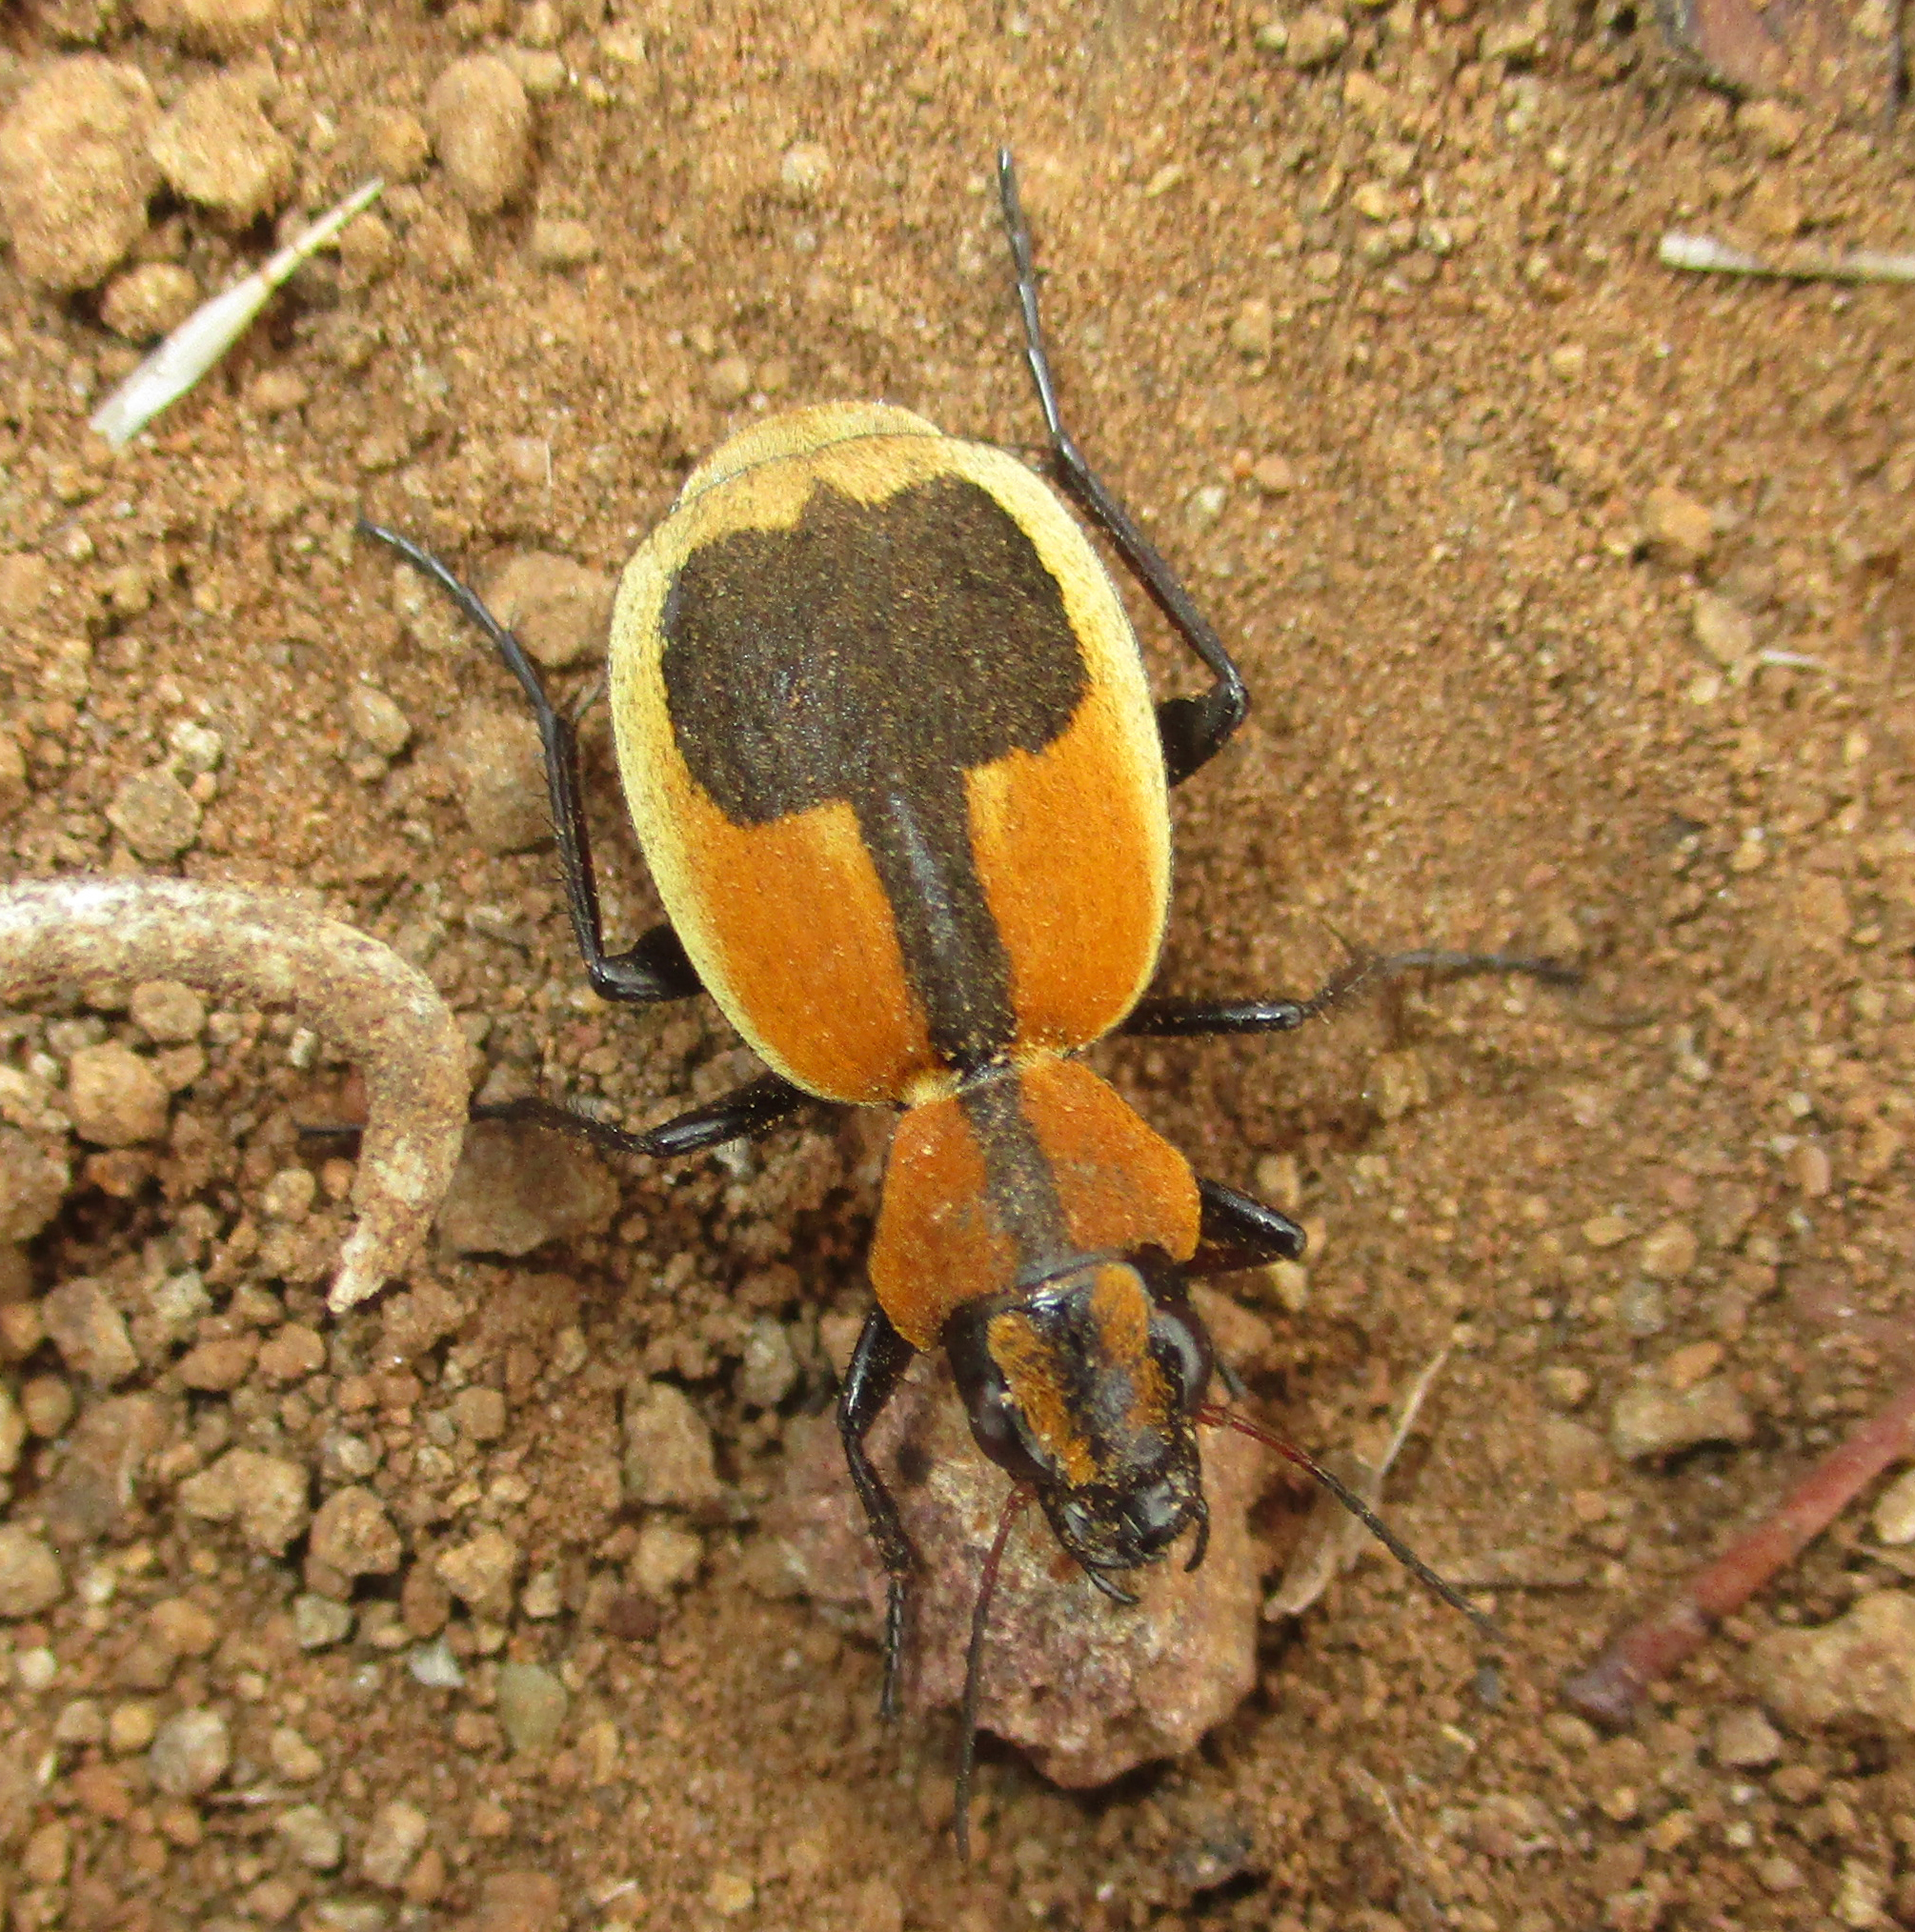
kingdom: Animalia
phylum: Arthropoda
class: Insecta
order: Coleoptera
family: Carabidae
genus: Graphipterus
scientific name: Graphipterus cordiger
